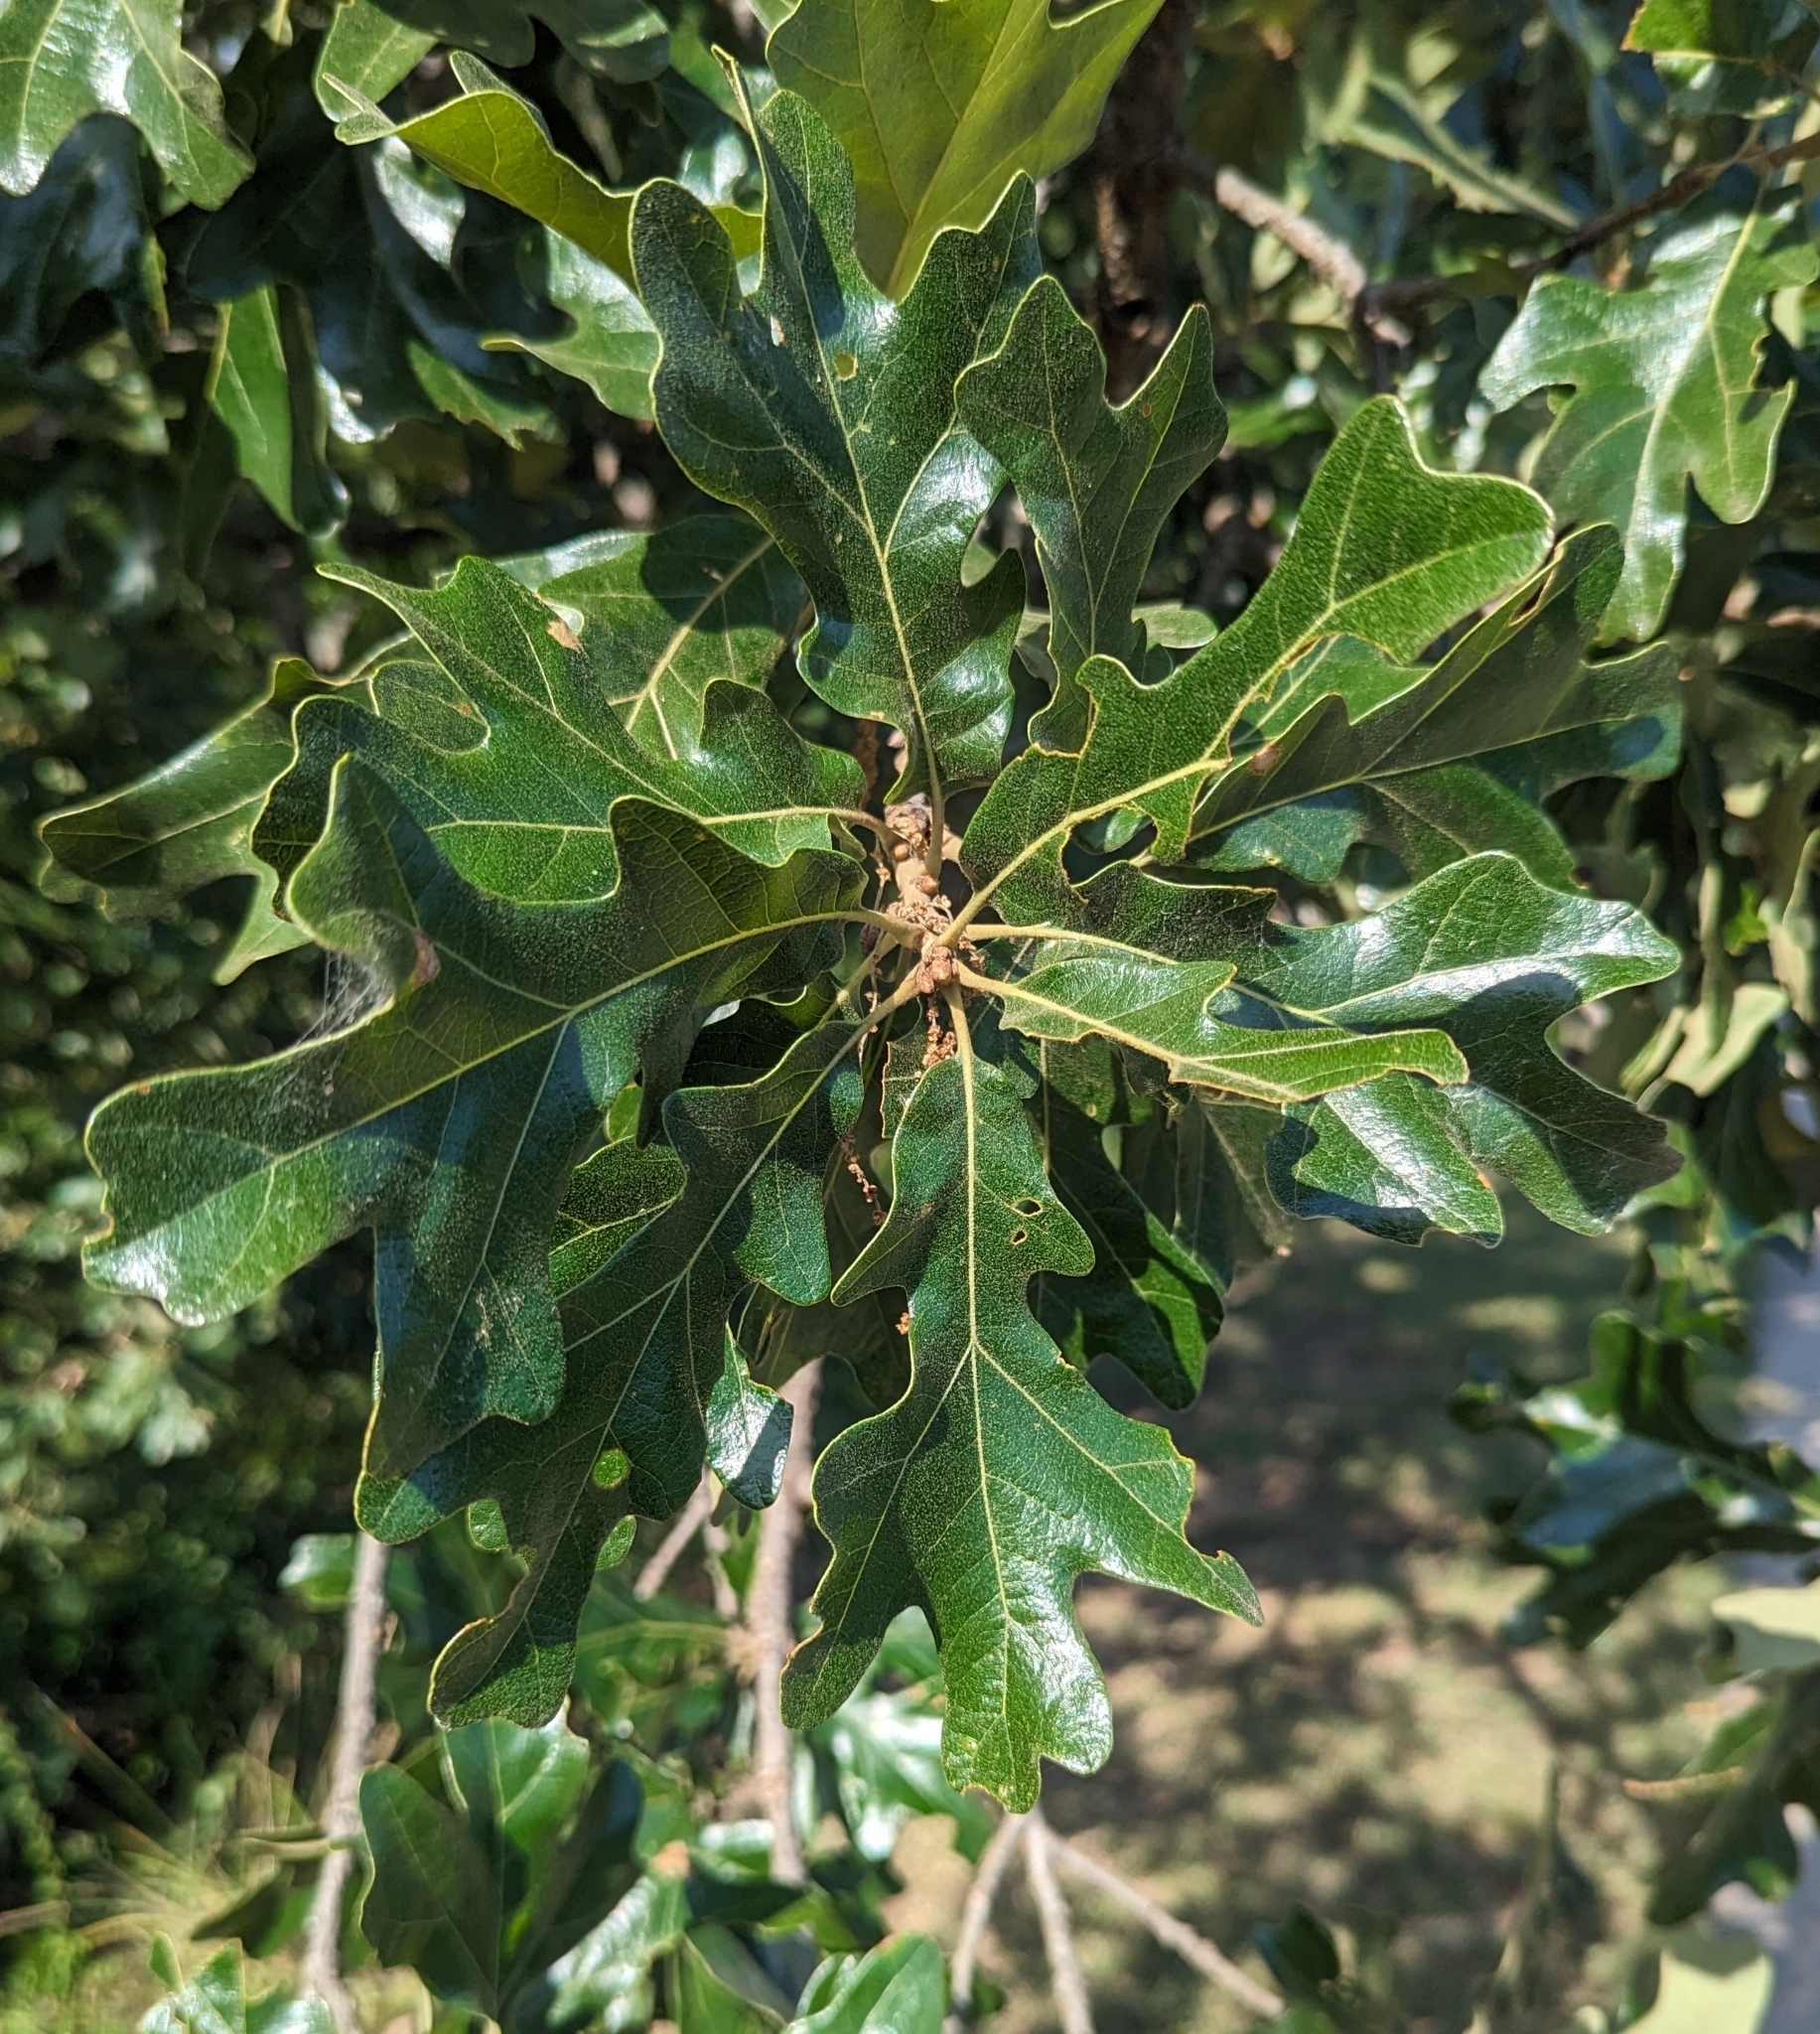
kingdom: Plantae
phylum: Tracheophyta
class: Magnoliopsida
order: Fagales
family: Fagaceae
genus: Quercus
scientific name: Quercus stellata
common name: Post oak
